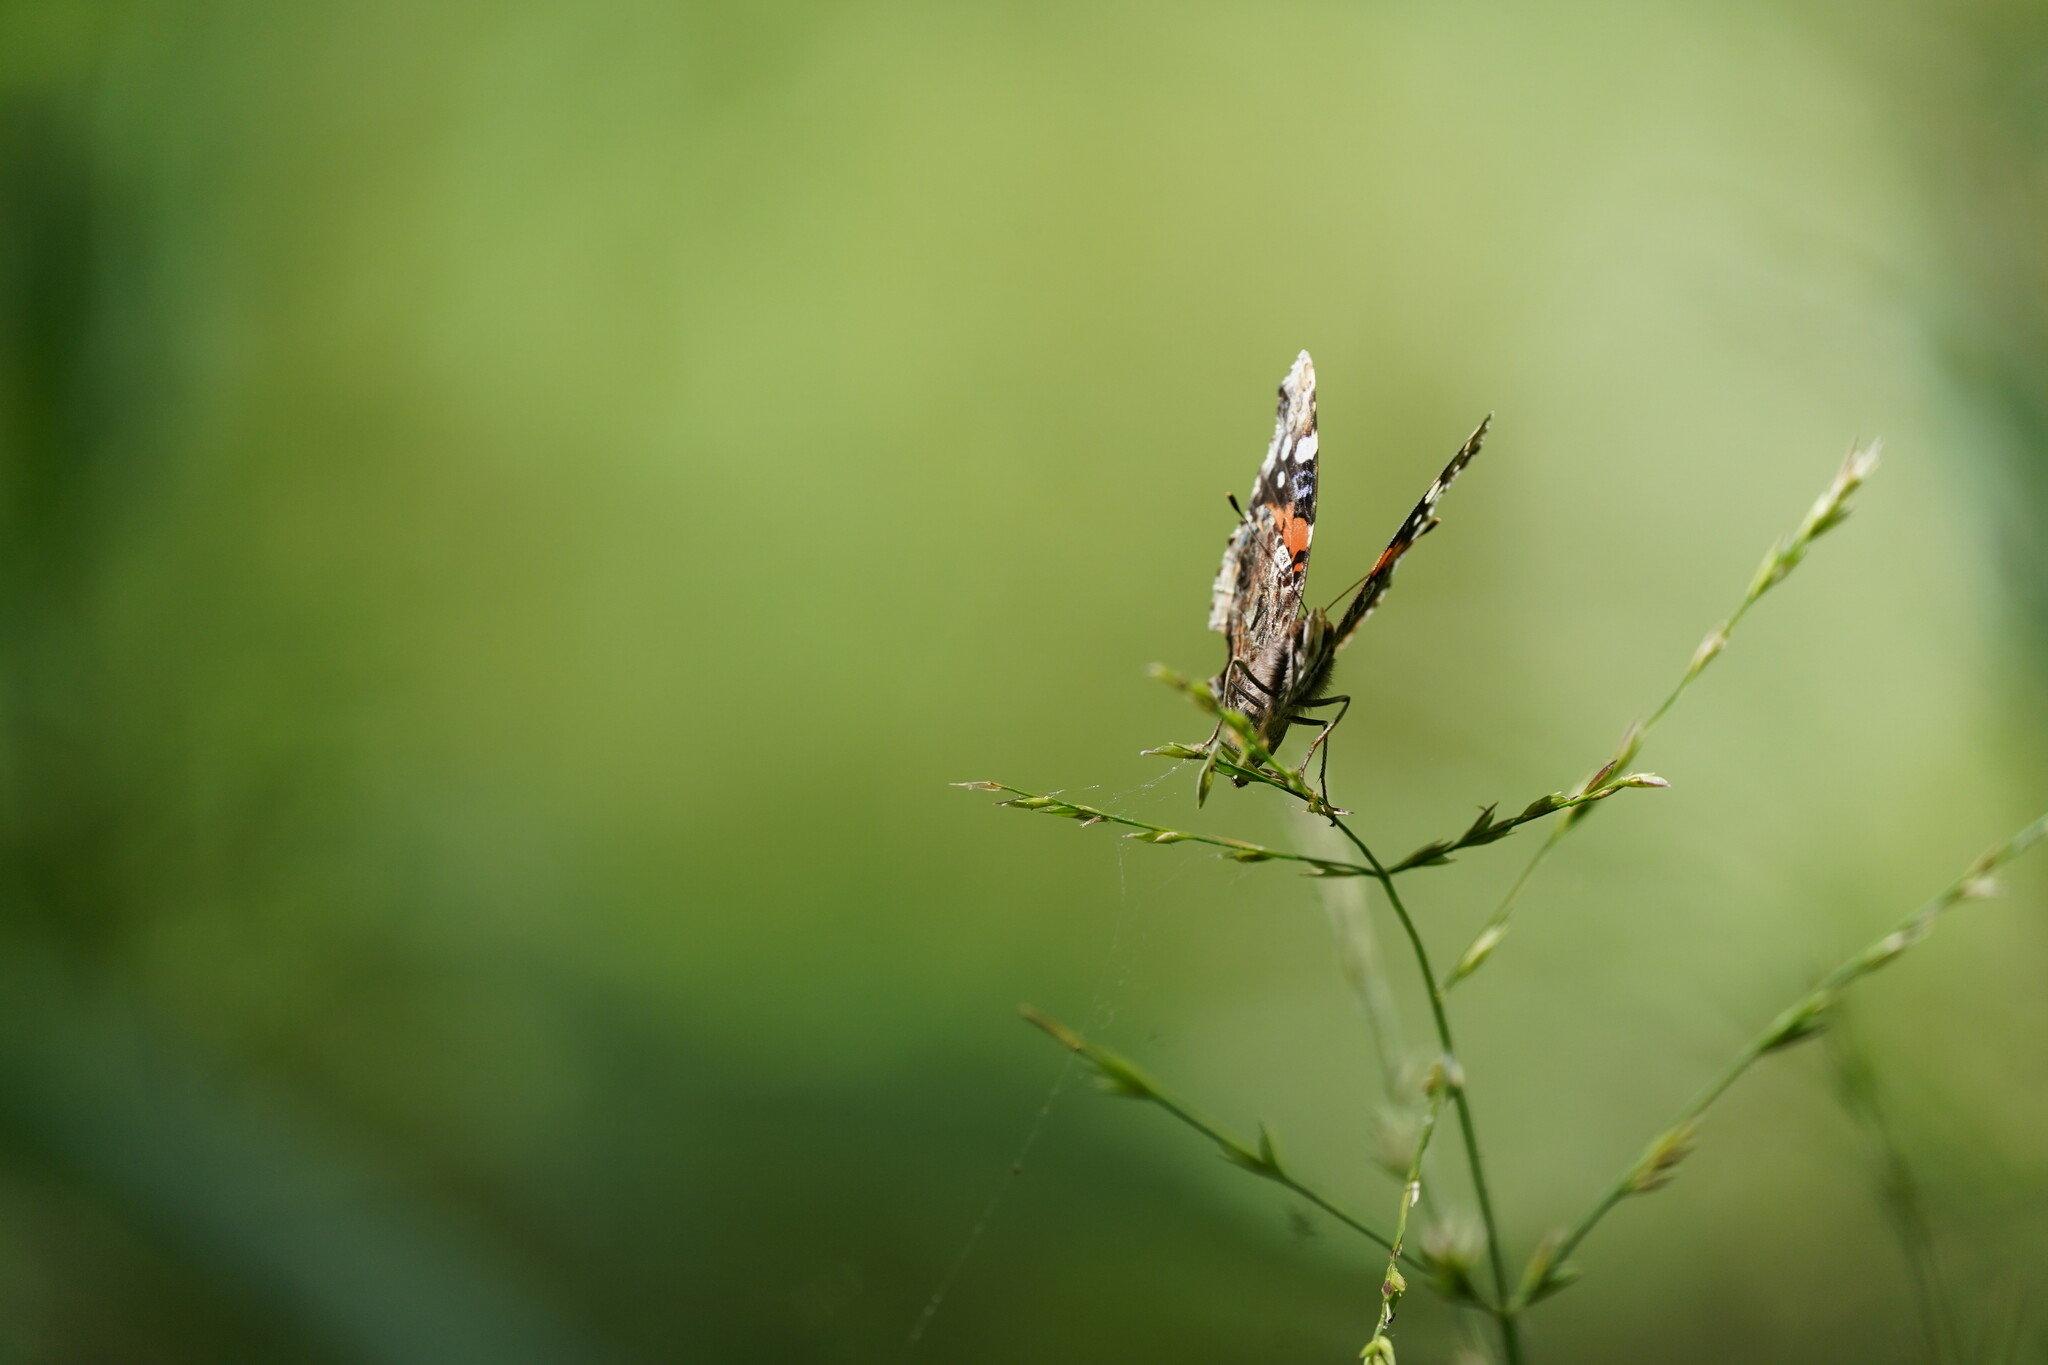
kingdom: Animalia
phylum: Arthropoda
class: Insecta
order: Lepidoptera
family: Nymphalidae
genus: Vanessa
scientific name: Vanessa atalanta
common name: Red admiral
